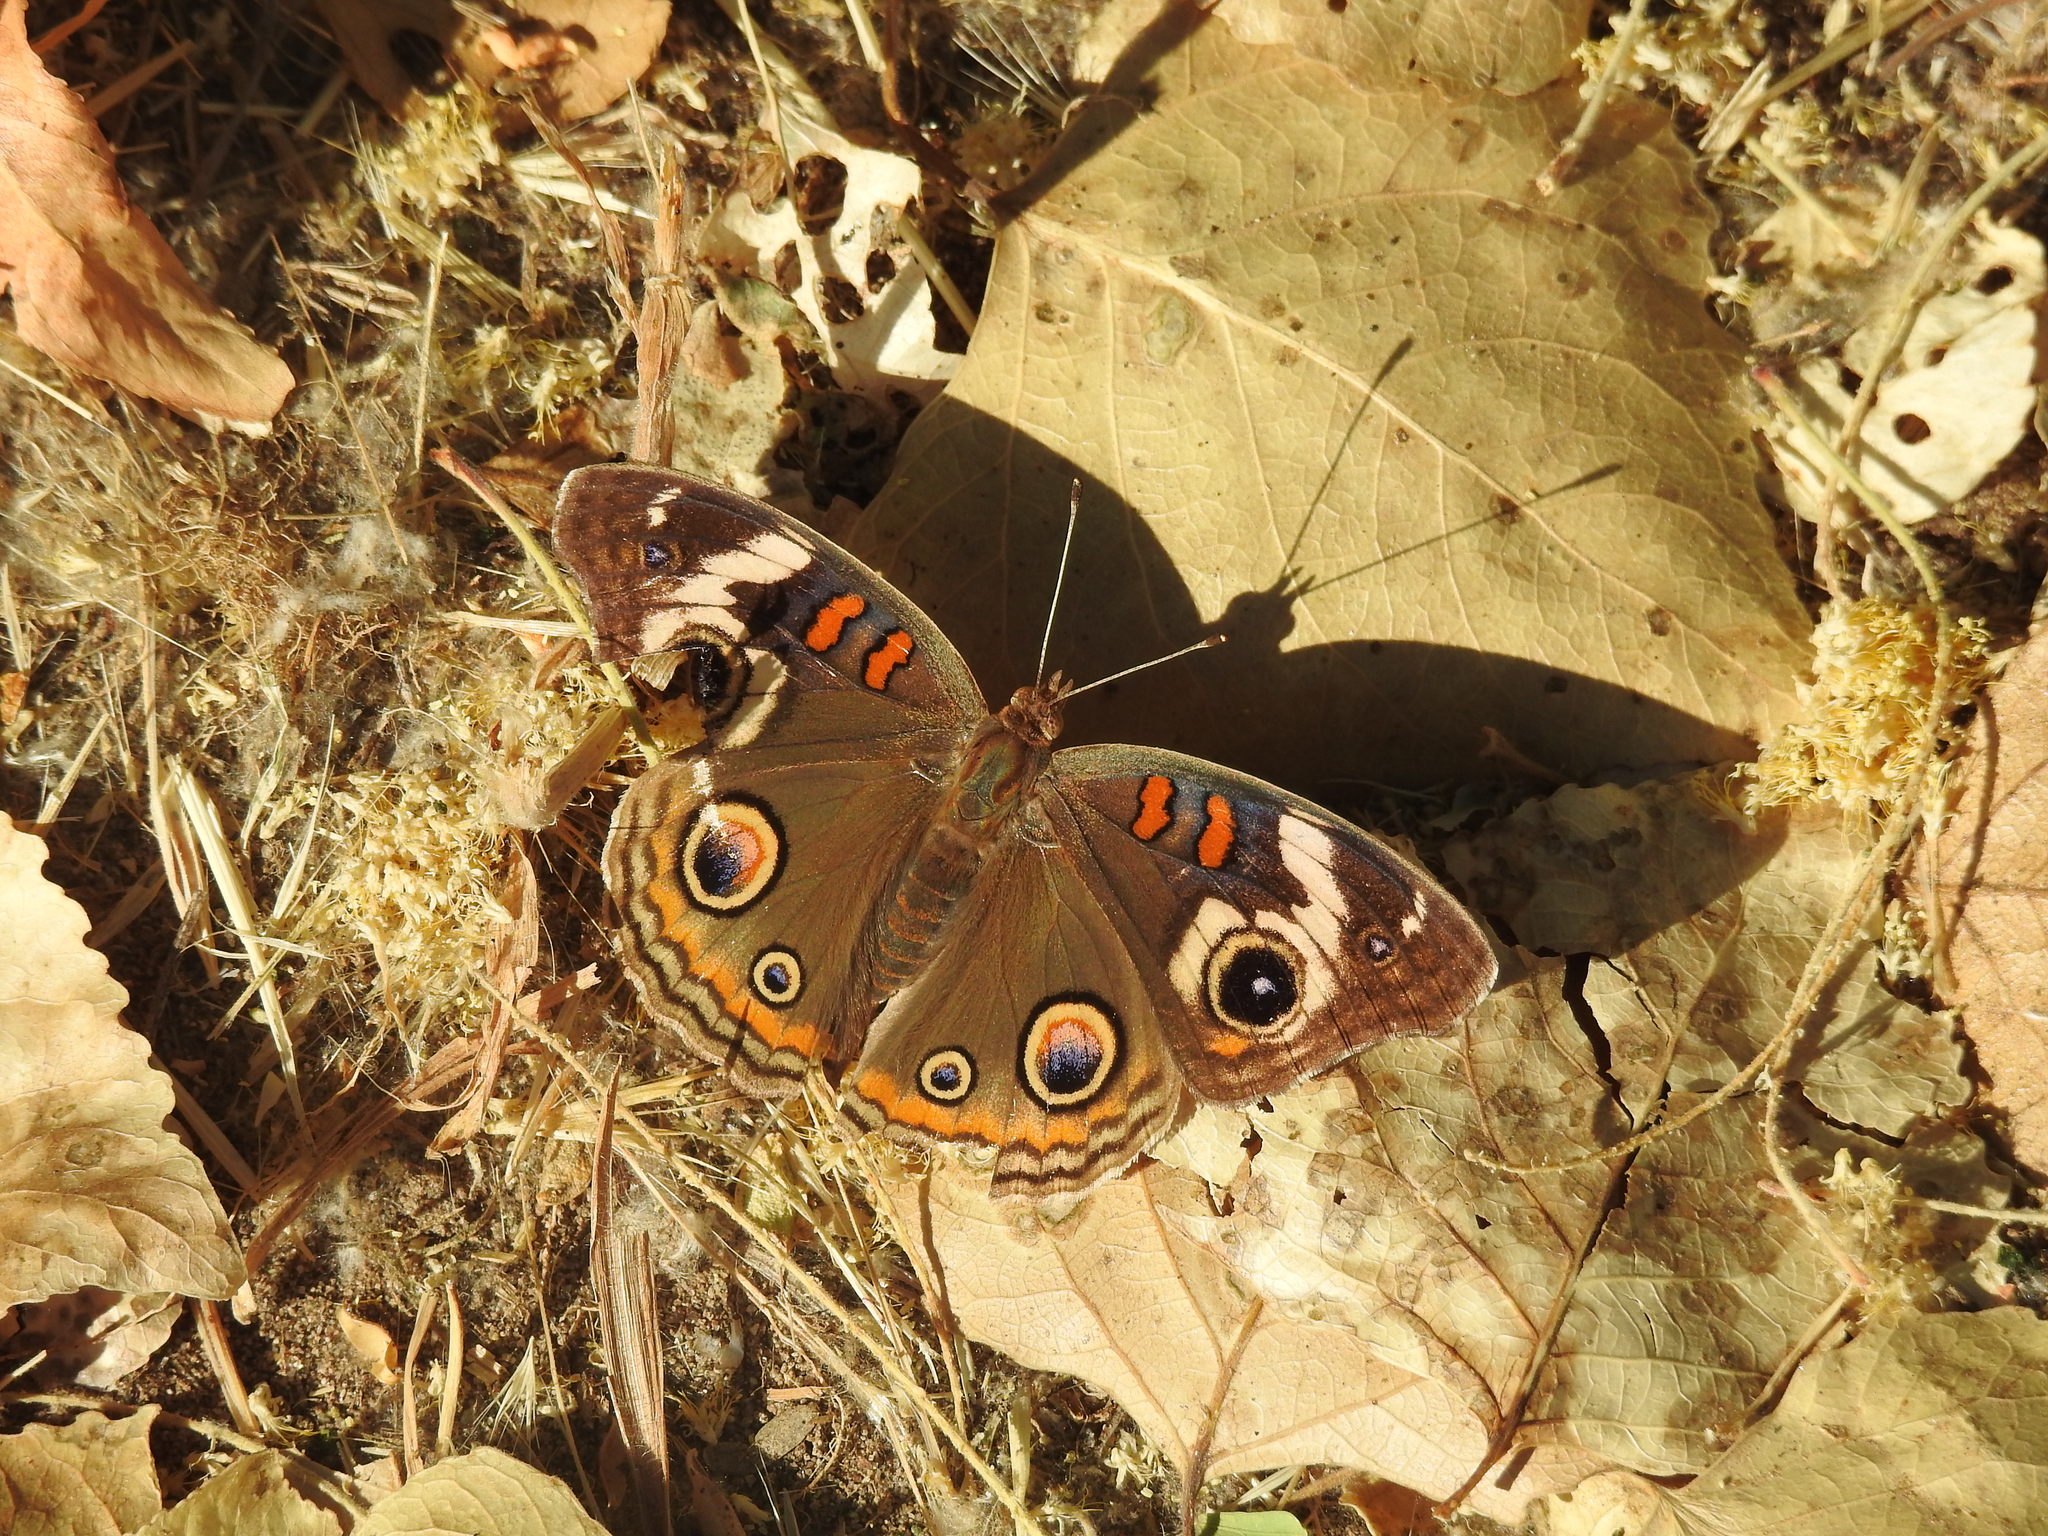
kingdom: Animalia
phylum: Arthropoda
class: Insecta
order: Lepidoptera
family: Nymphalidae
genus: Junonia
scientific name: Junonia grisea
